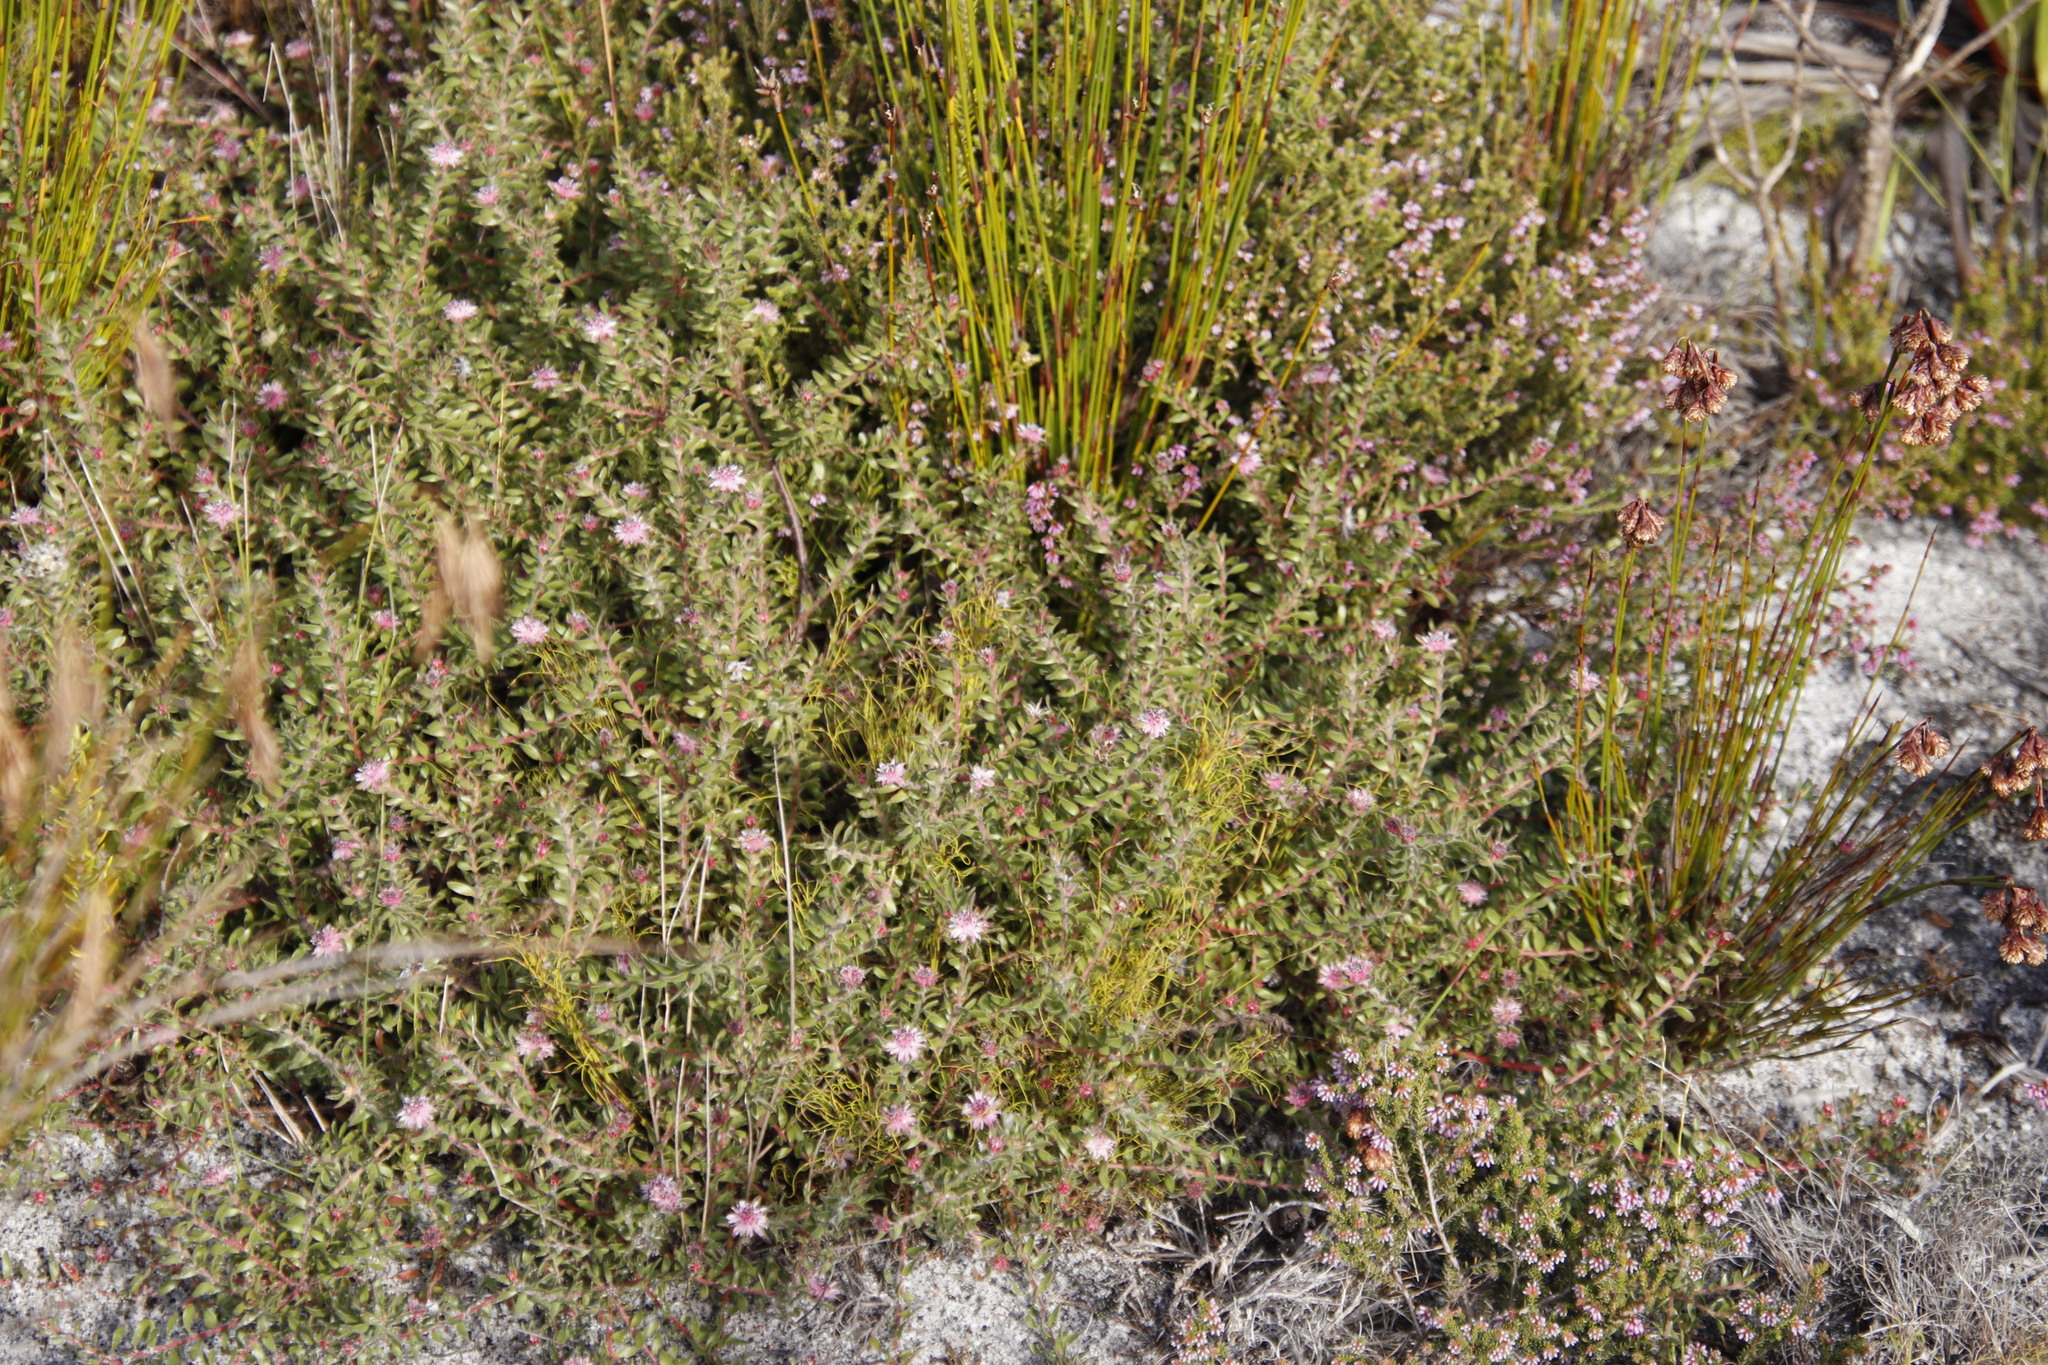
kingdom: Plantae
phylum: Tracheophyta
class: Magnoliopsida
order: Proteales
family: Proteaceae
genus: Diastella
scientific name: Diastella divaricata
